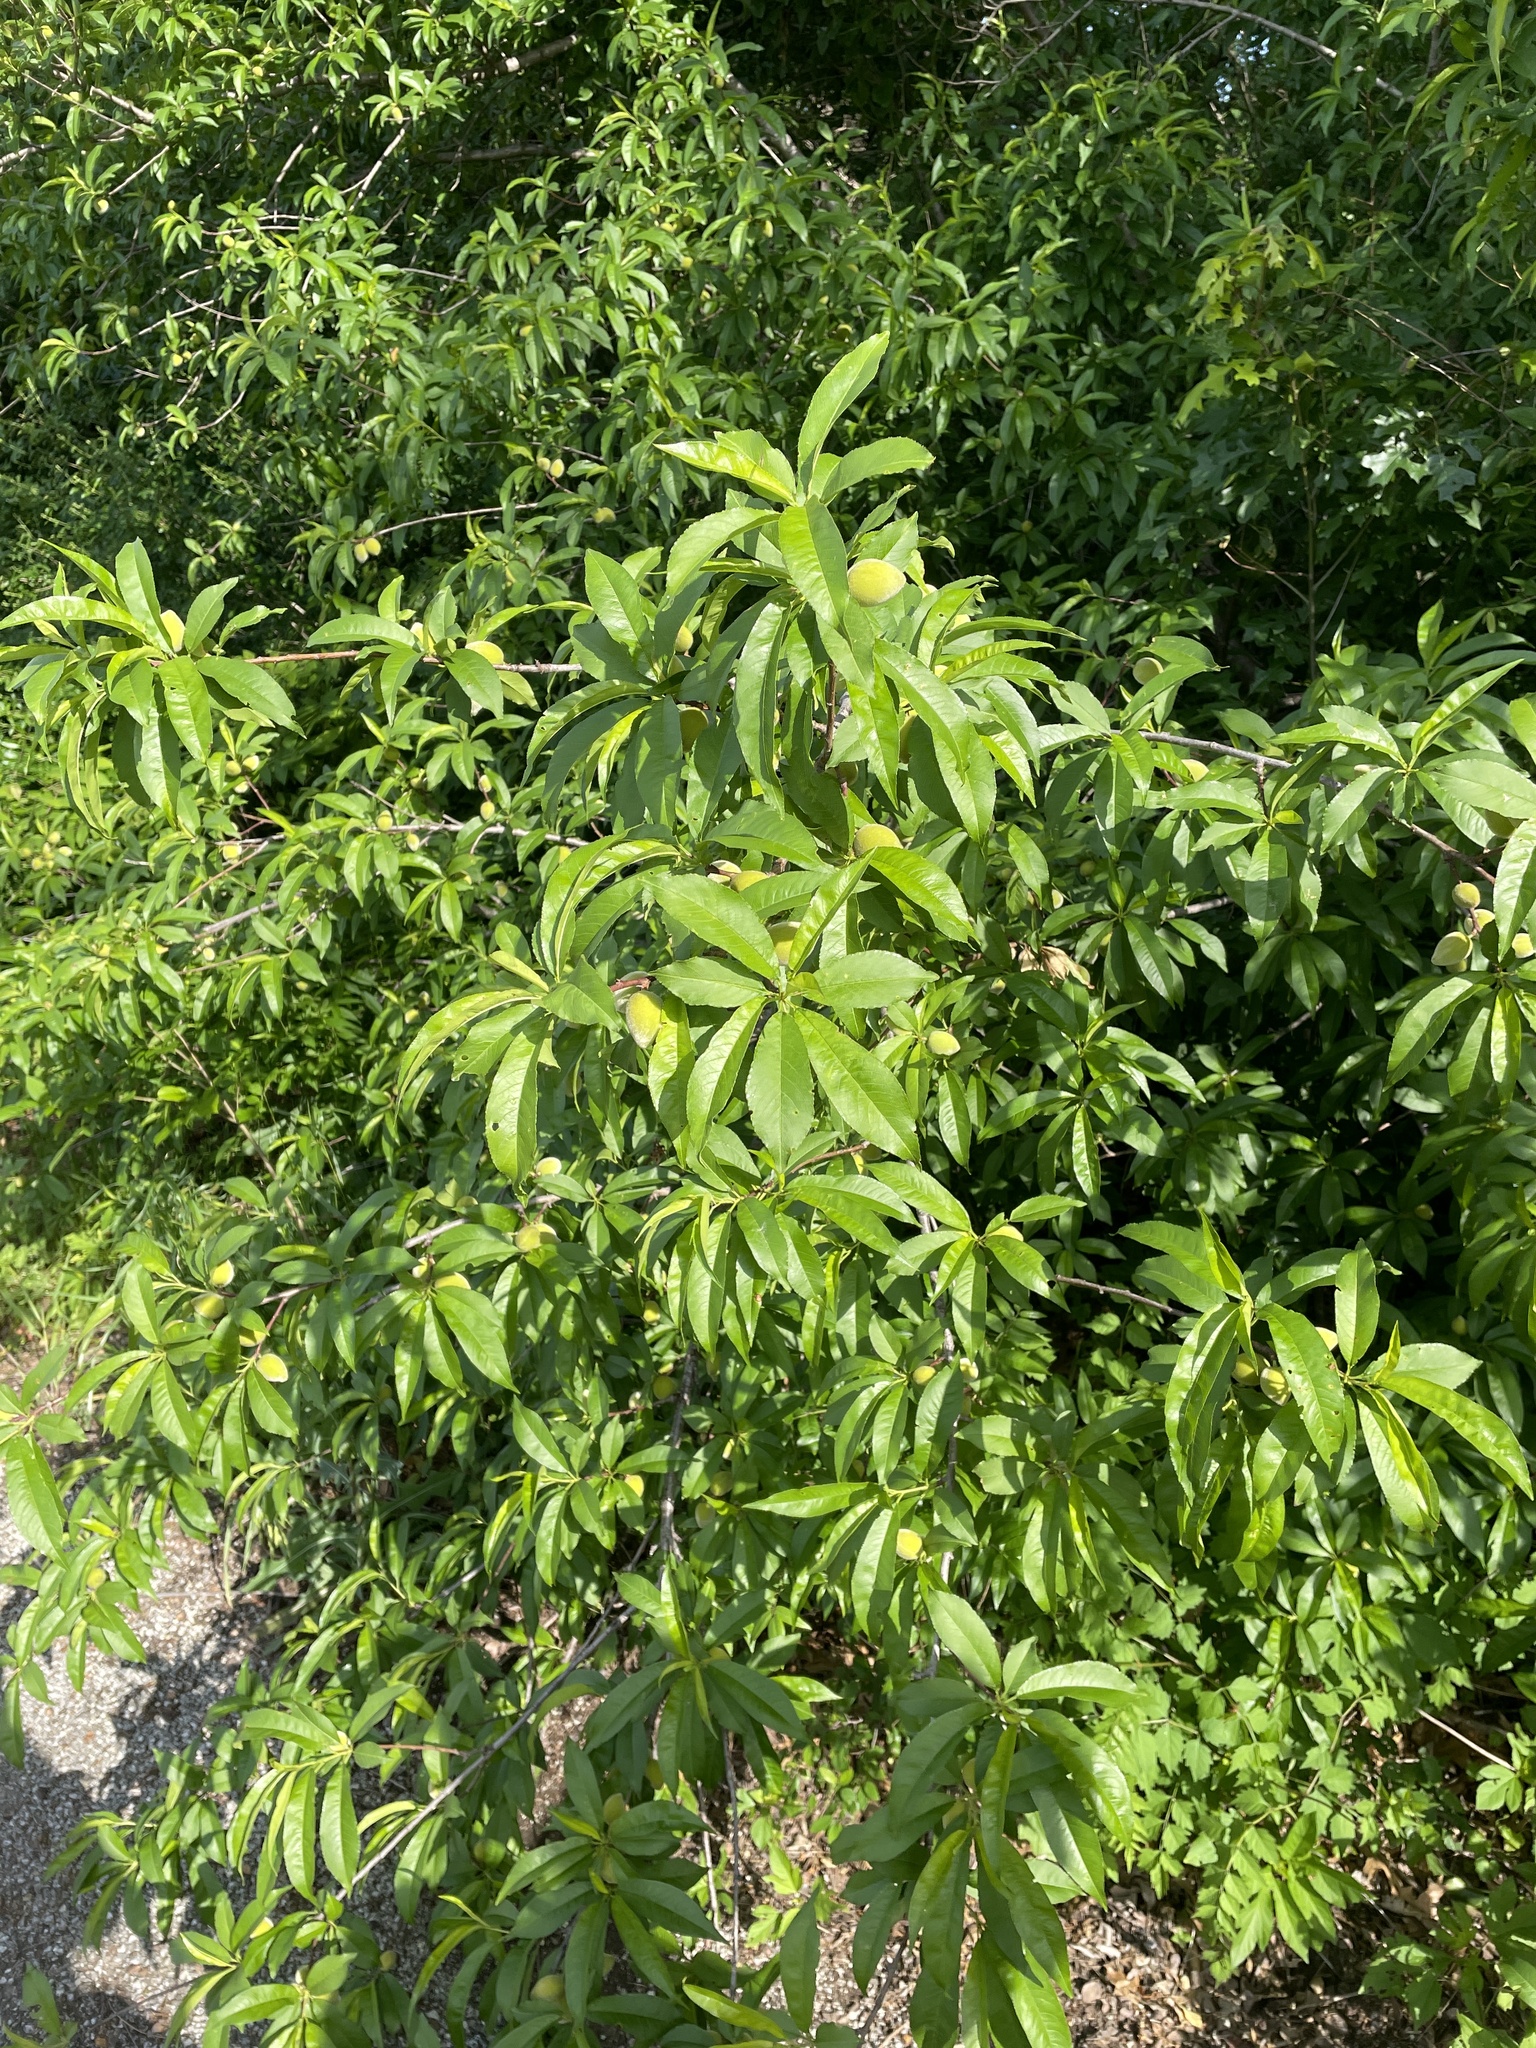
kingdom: Plantae
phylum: Tracheophyta
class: Magnoliopsida
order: Rosales
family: Rosaceae
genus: Prunus
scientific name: Prunus persica
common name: Peach
